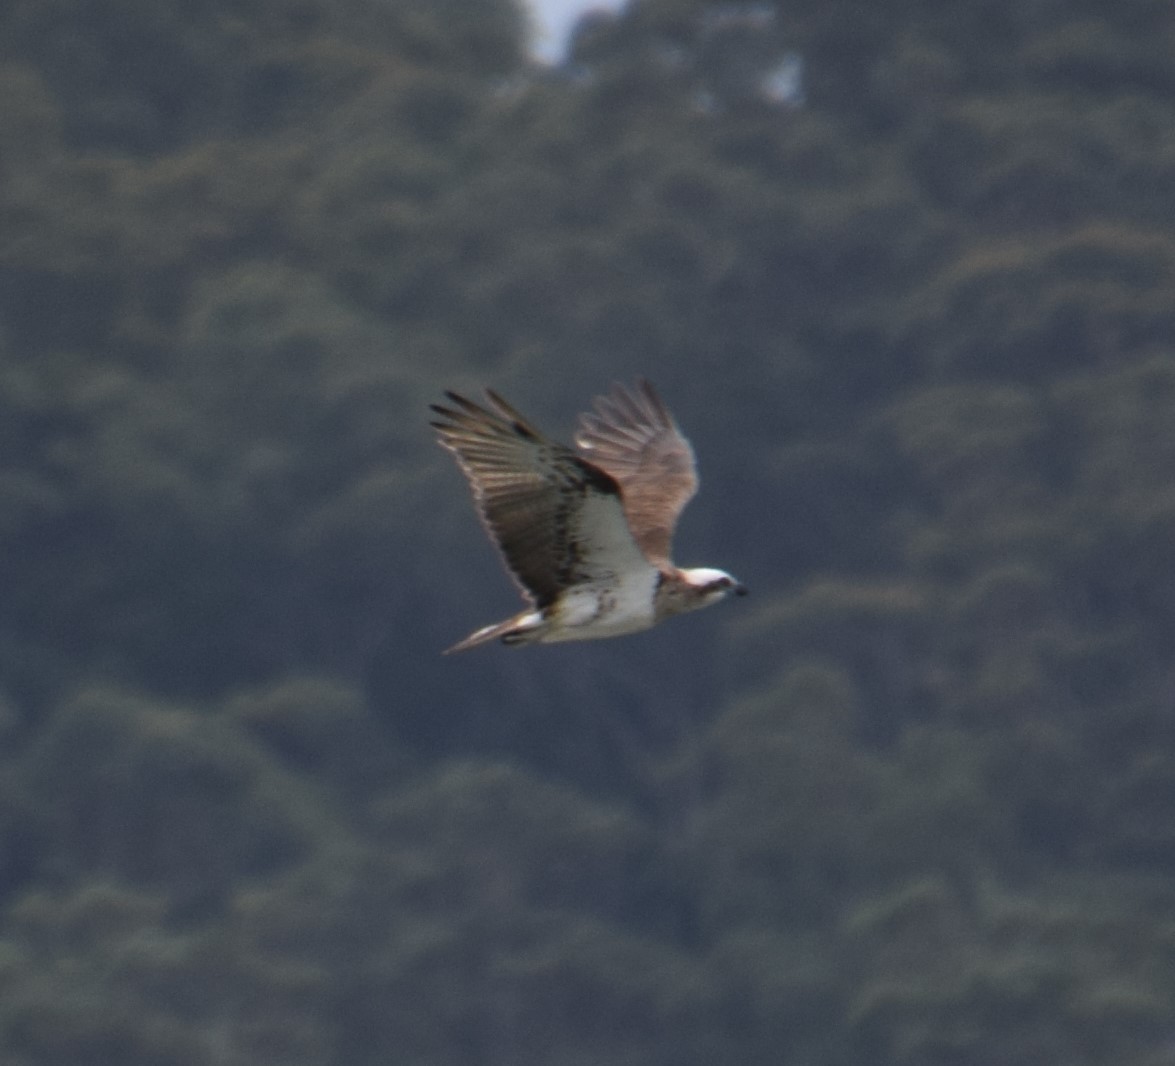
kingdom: Animalia
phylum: Chordata
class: Aves
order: Accipitriformes
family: Pandionidae
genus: Pandion
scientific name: Pandion haliaetus
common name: Osprey
